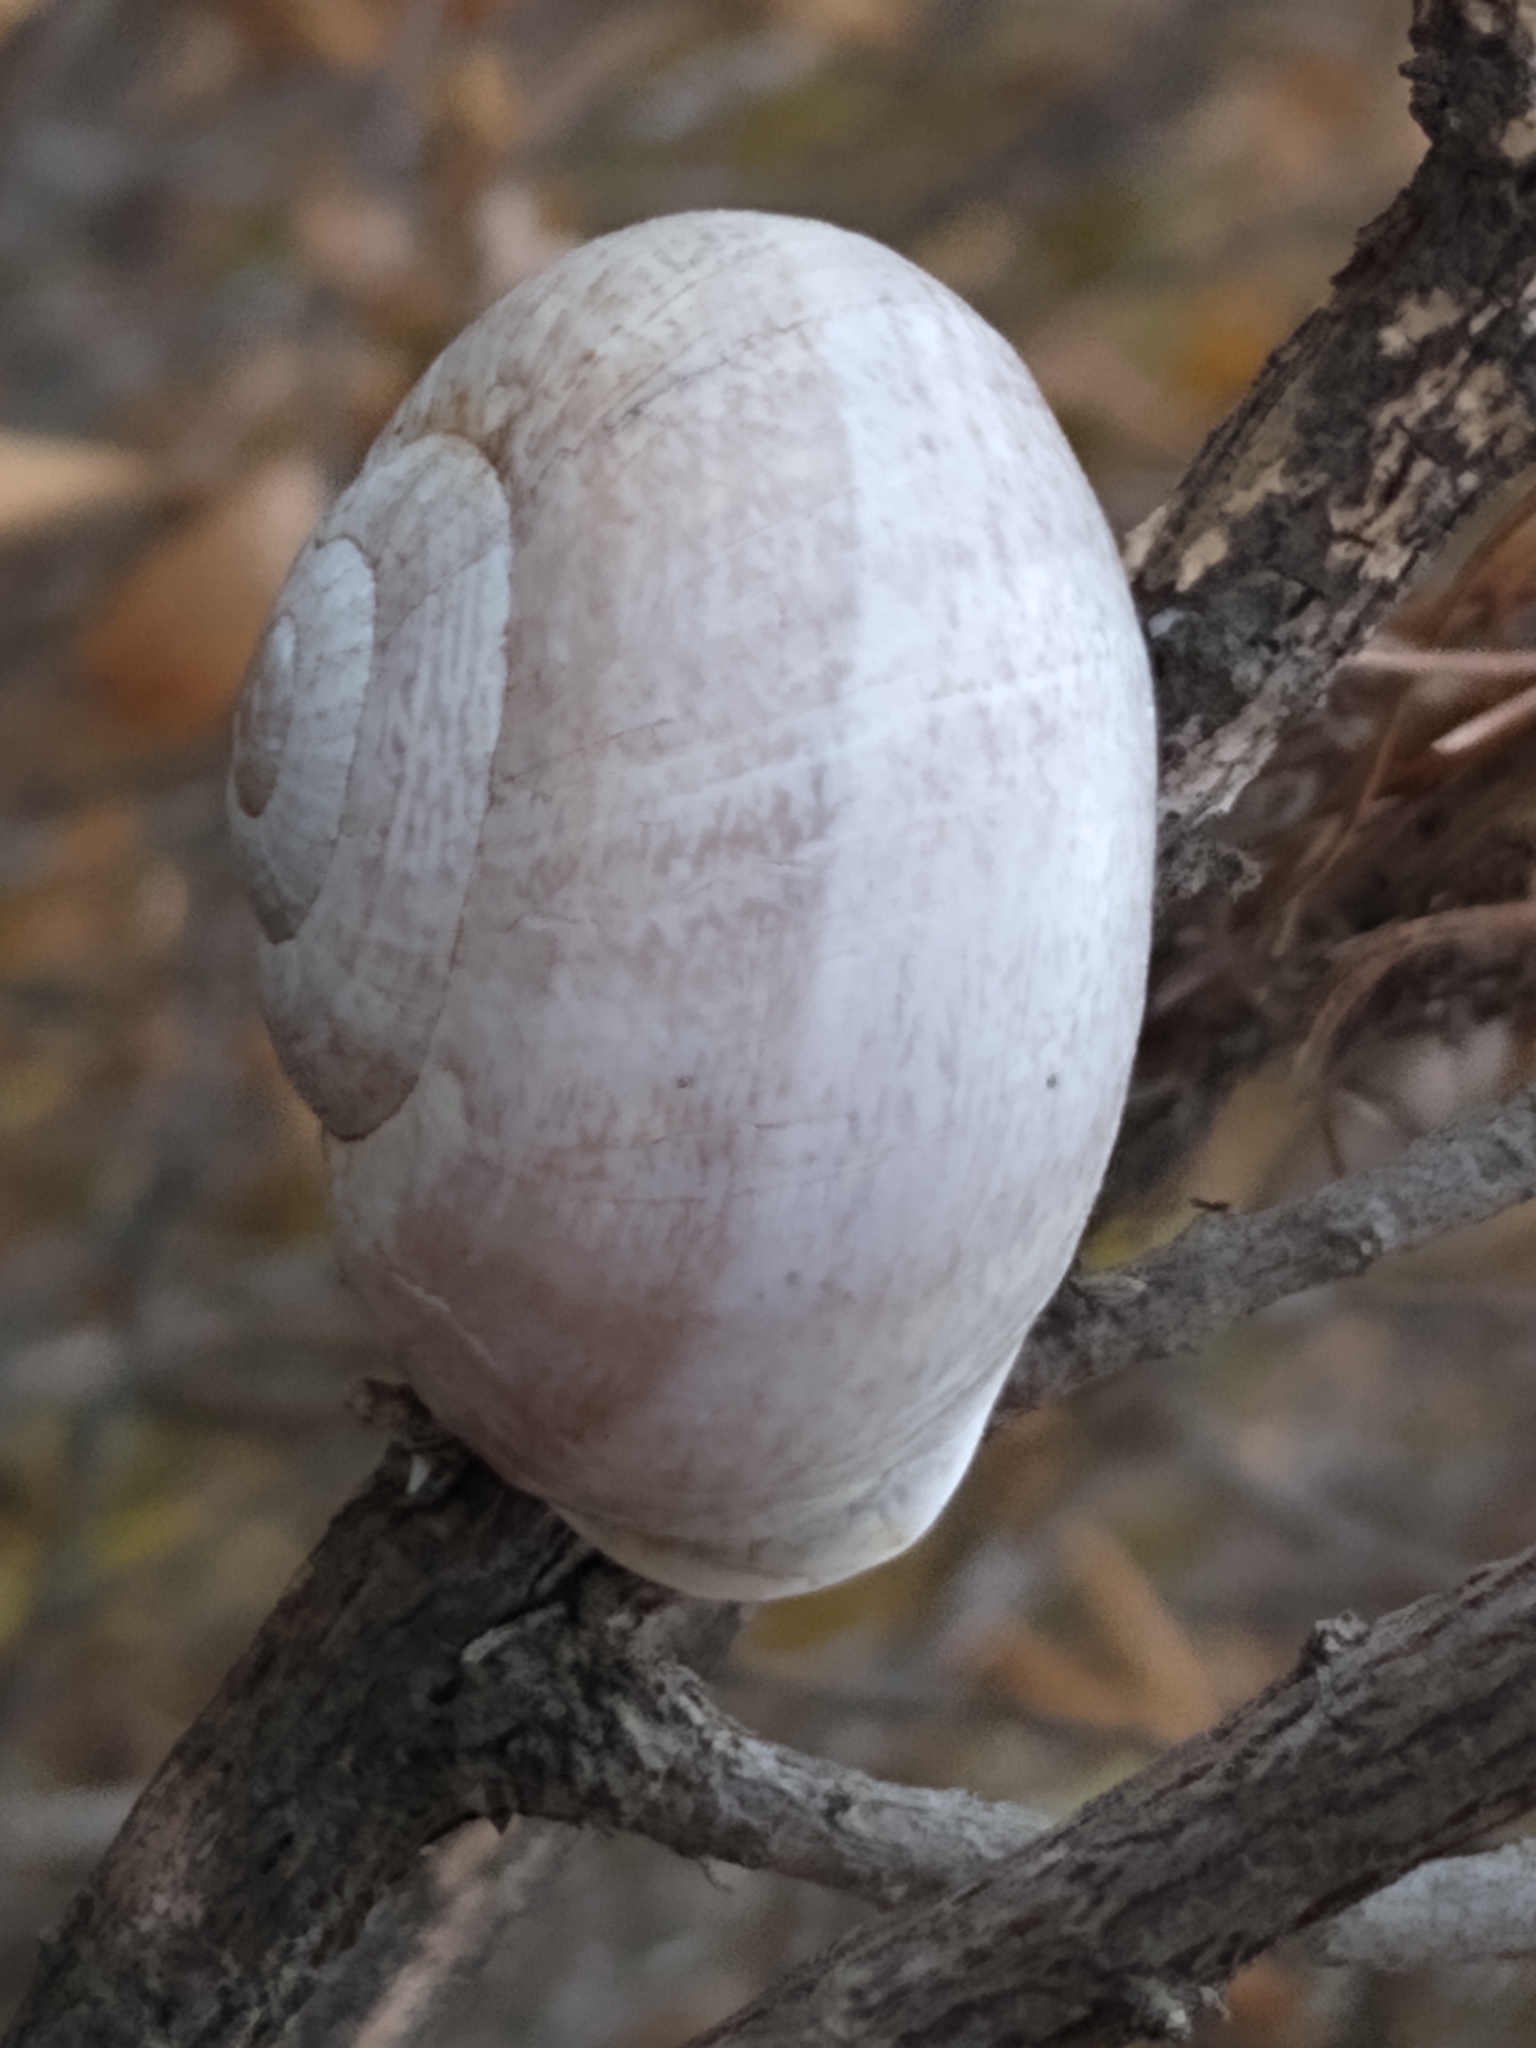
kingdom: Animalia
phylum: Mollusca
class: Gastropoda
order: Stylommatophora
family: Helicidae
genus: Otala
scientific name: Otala lactea
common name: Milk snail
